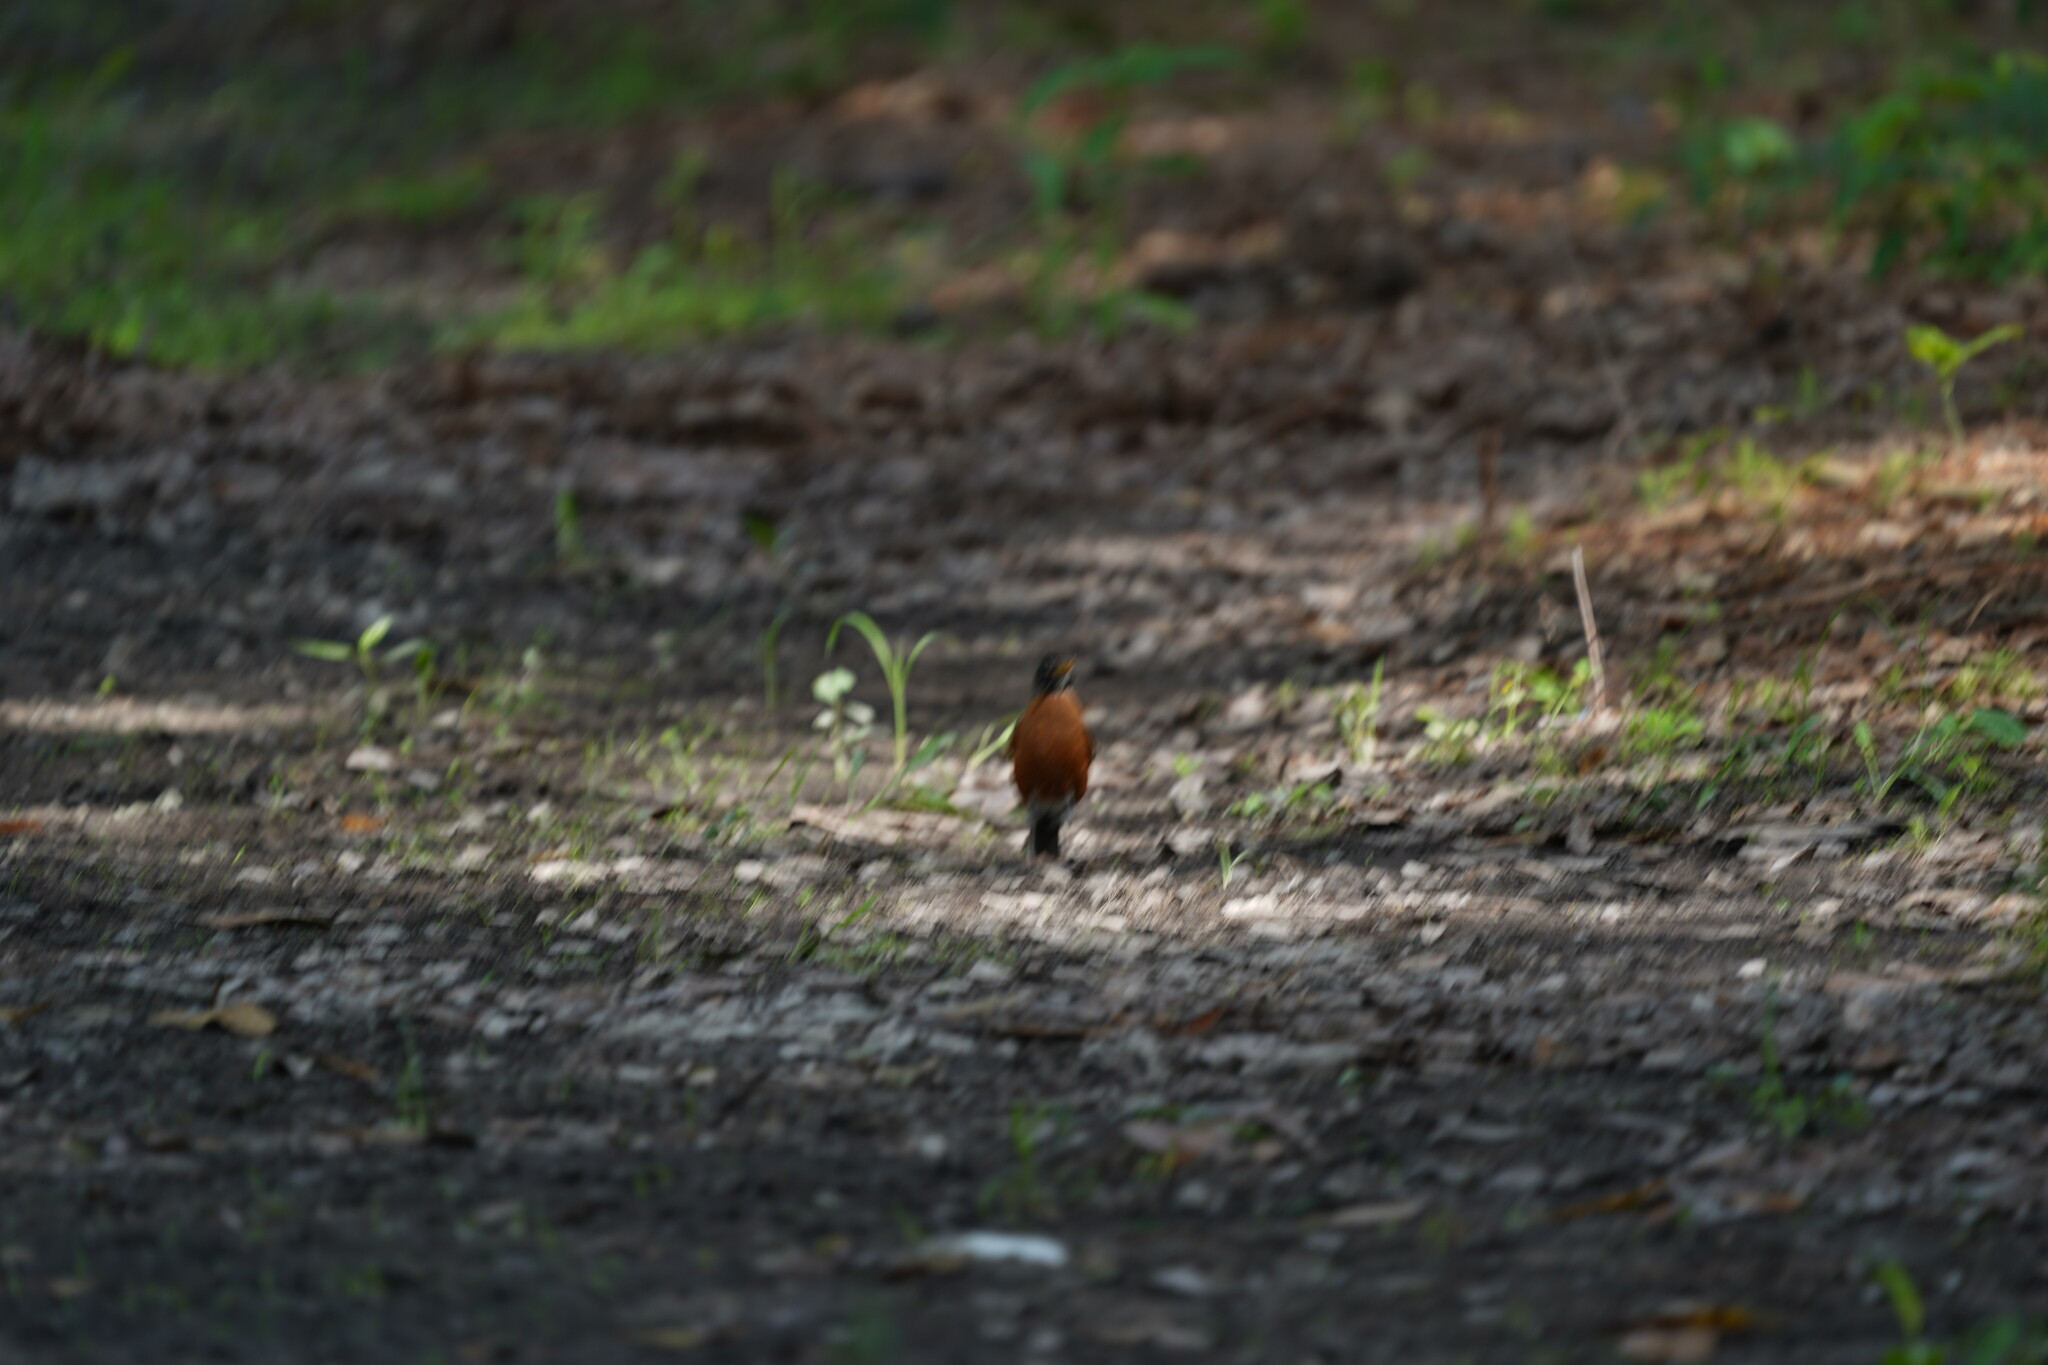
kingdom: Animalia
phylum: Chordata
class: Aves
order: Passeriformes
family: Turdidae
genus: Turdus
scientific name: Turdus migratorius
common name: American robin
